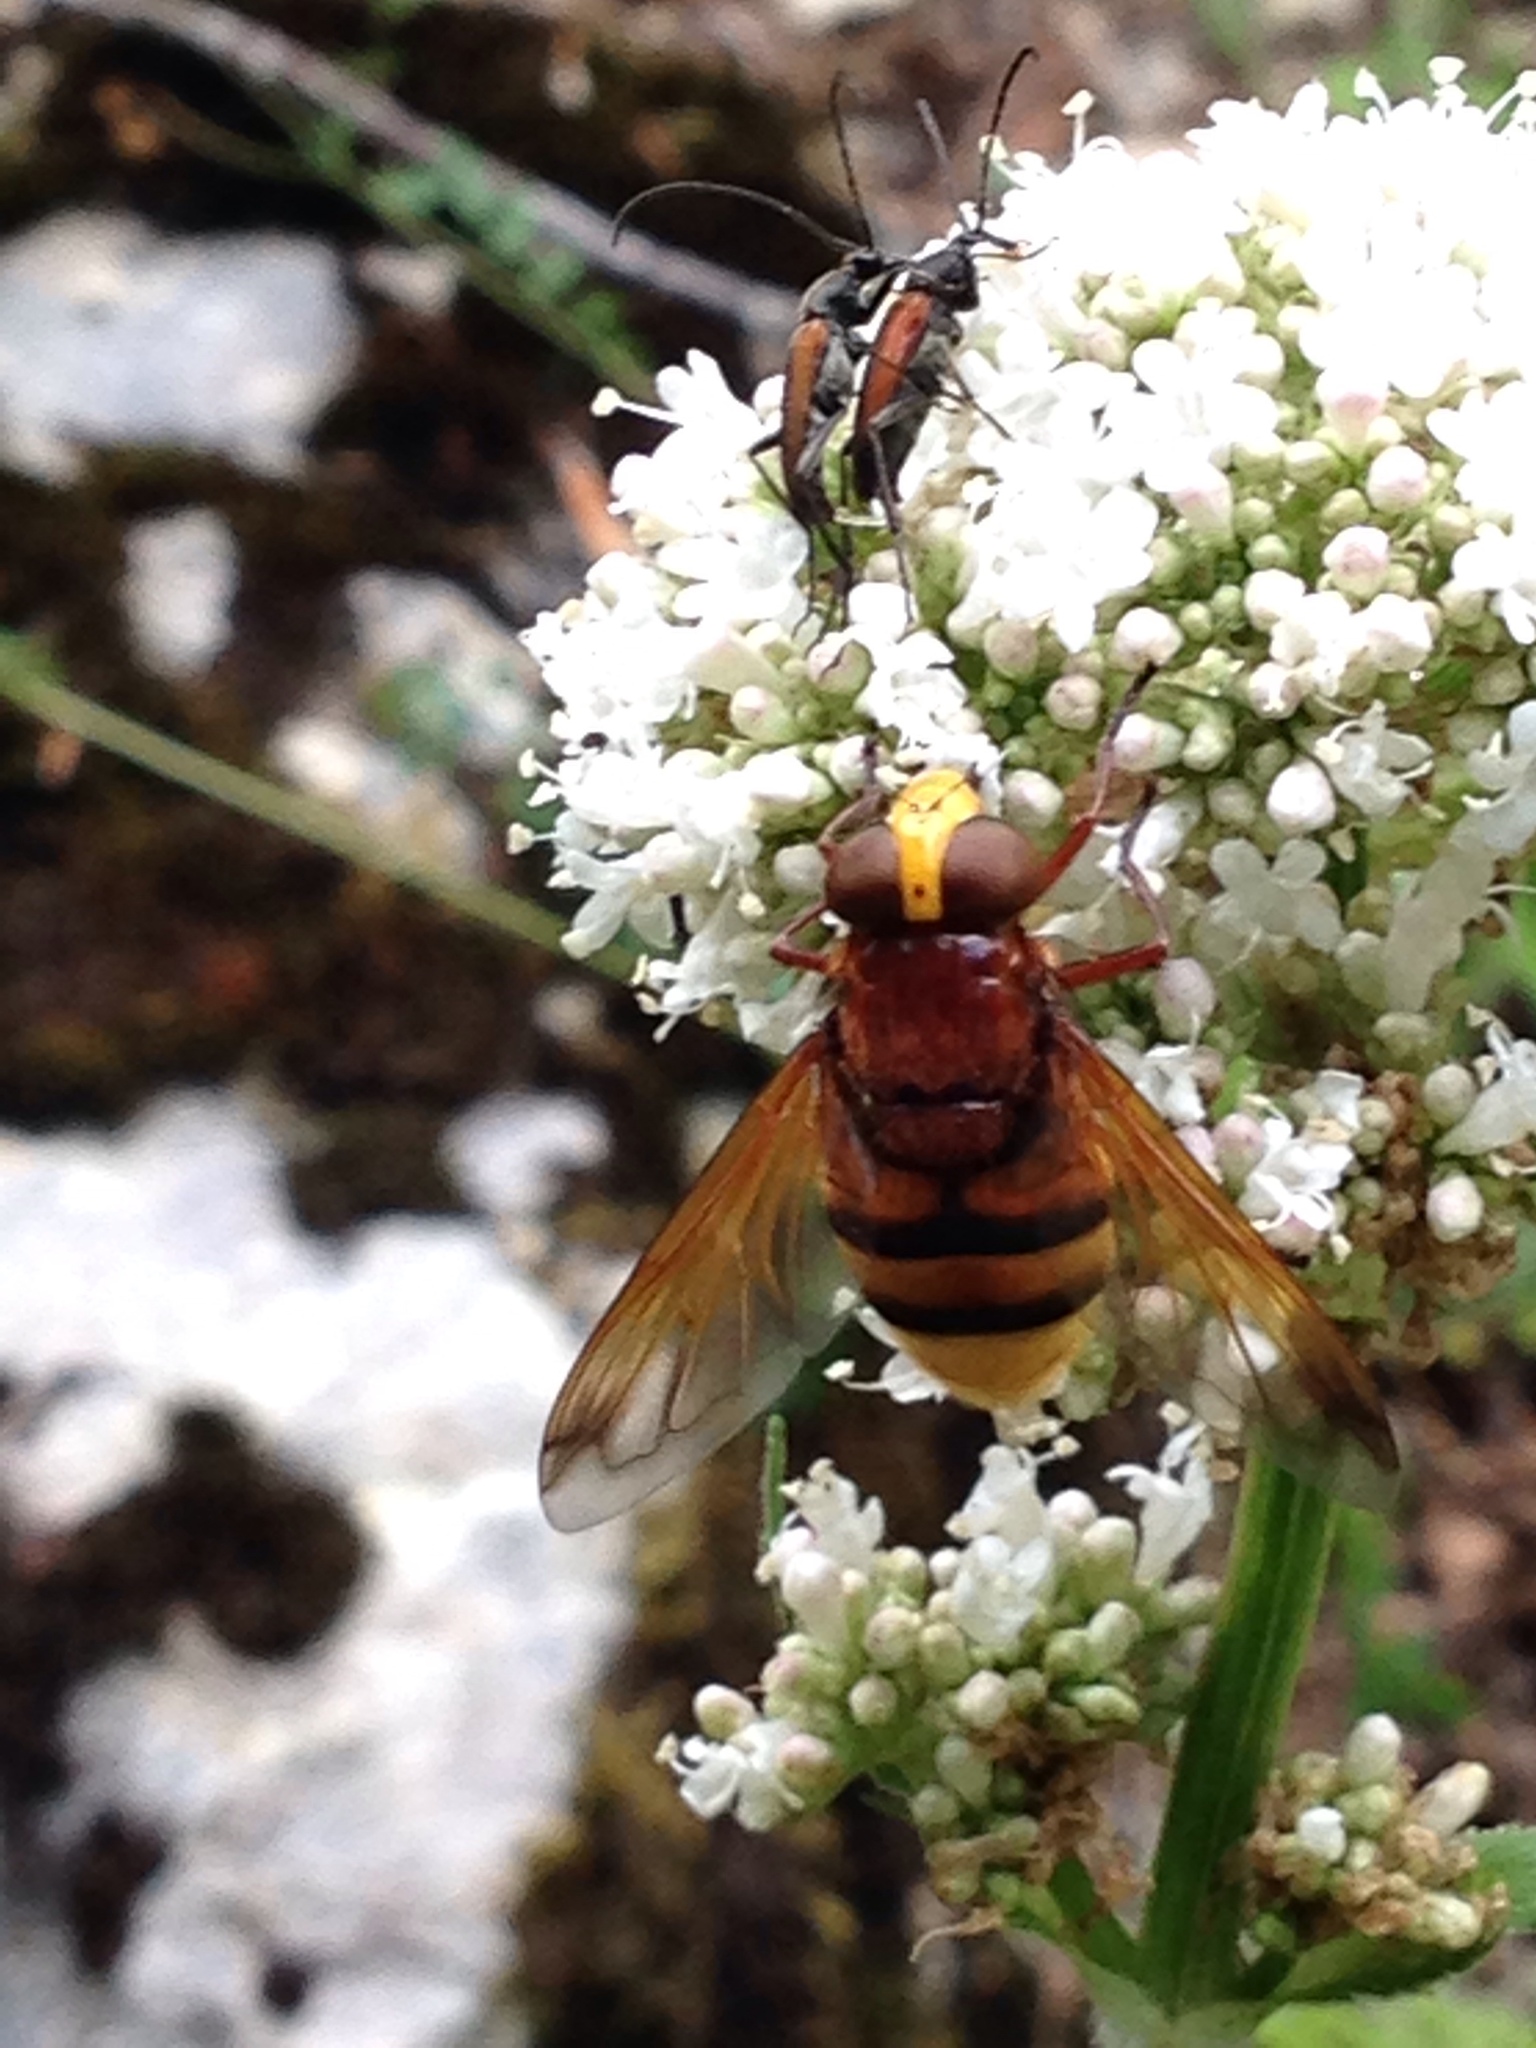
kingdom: Animalia
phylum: Arthropoda
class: Insecta
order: Diptera
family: Syrphidae
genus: Volucella
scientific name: Volucella zonaria
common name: Hornet hoverfly
